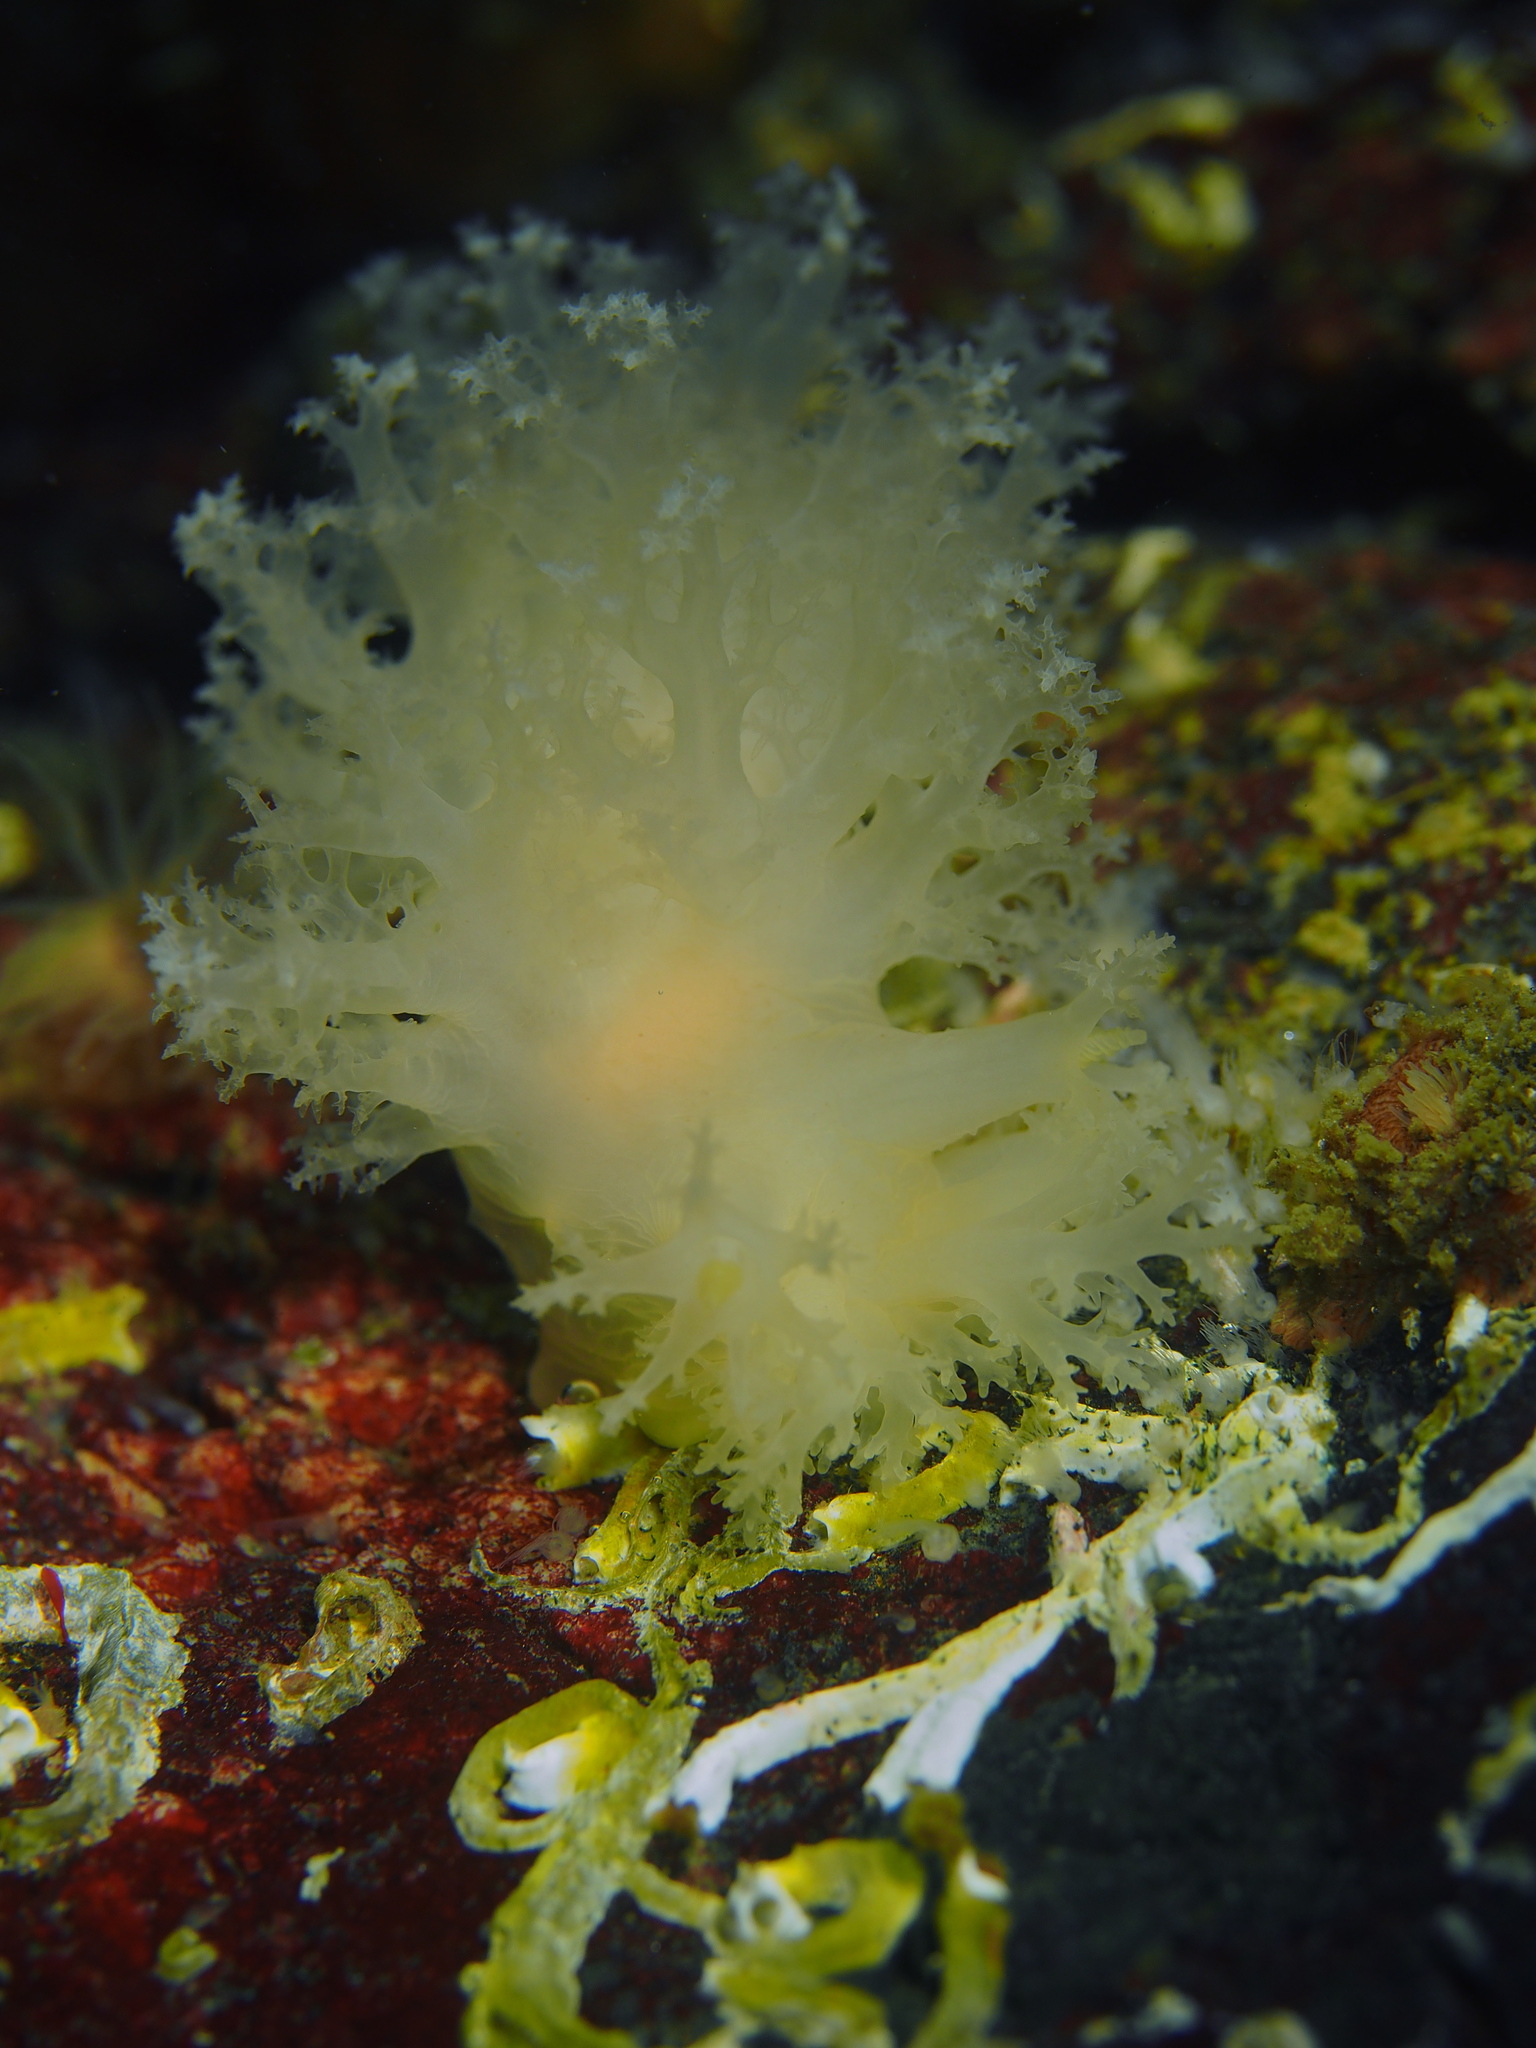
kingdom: Animalia
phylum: Mollusca
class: Gastropoda
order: Nudibranchia
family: Dendronotidae
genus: Dendronotus
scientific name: Dendronotus lacteus
